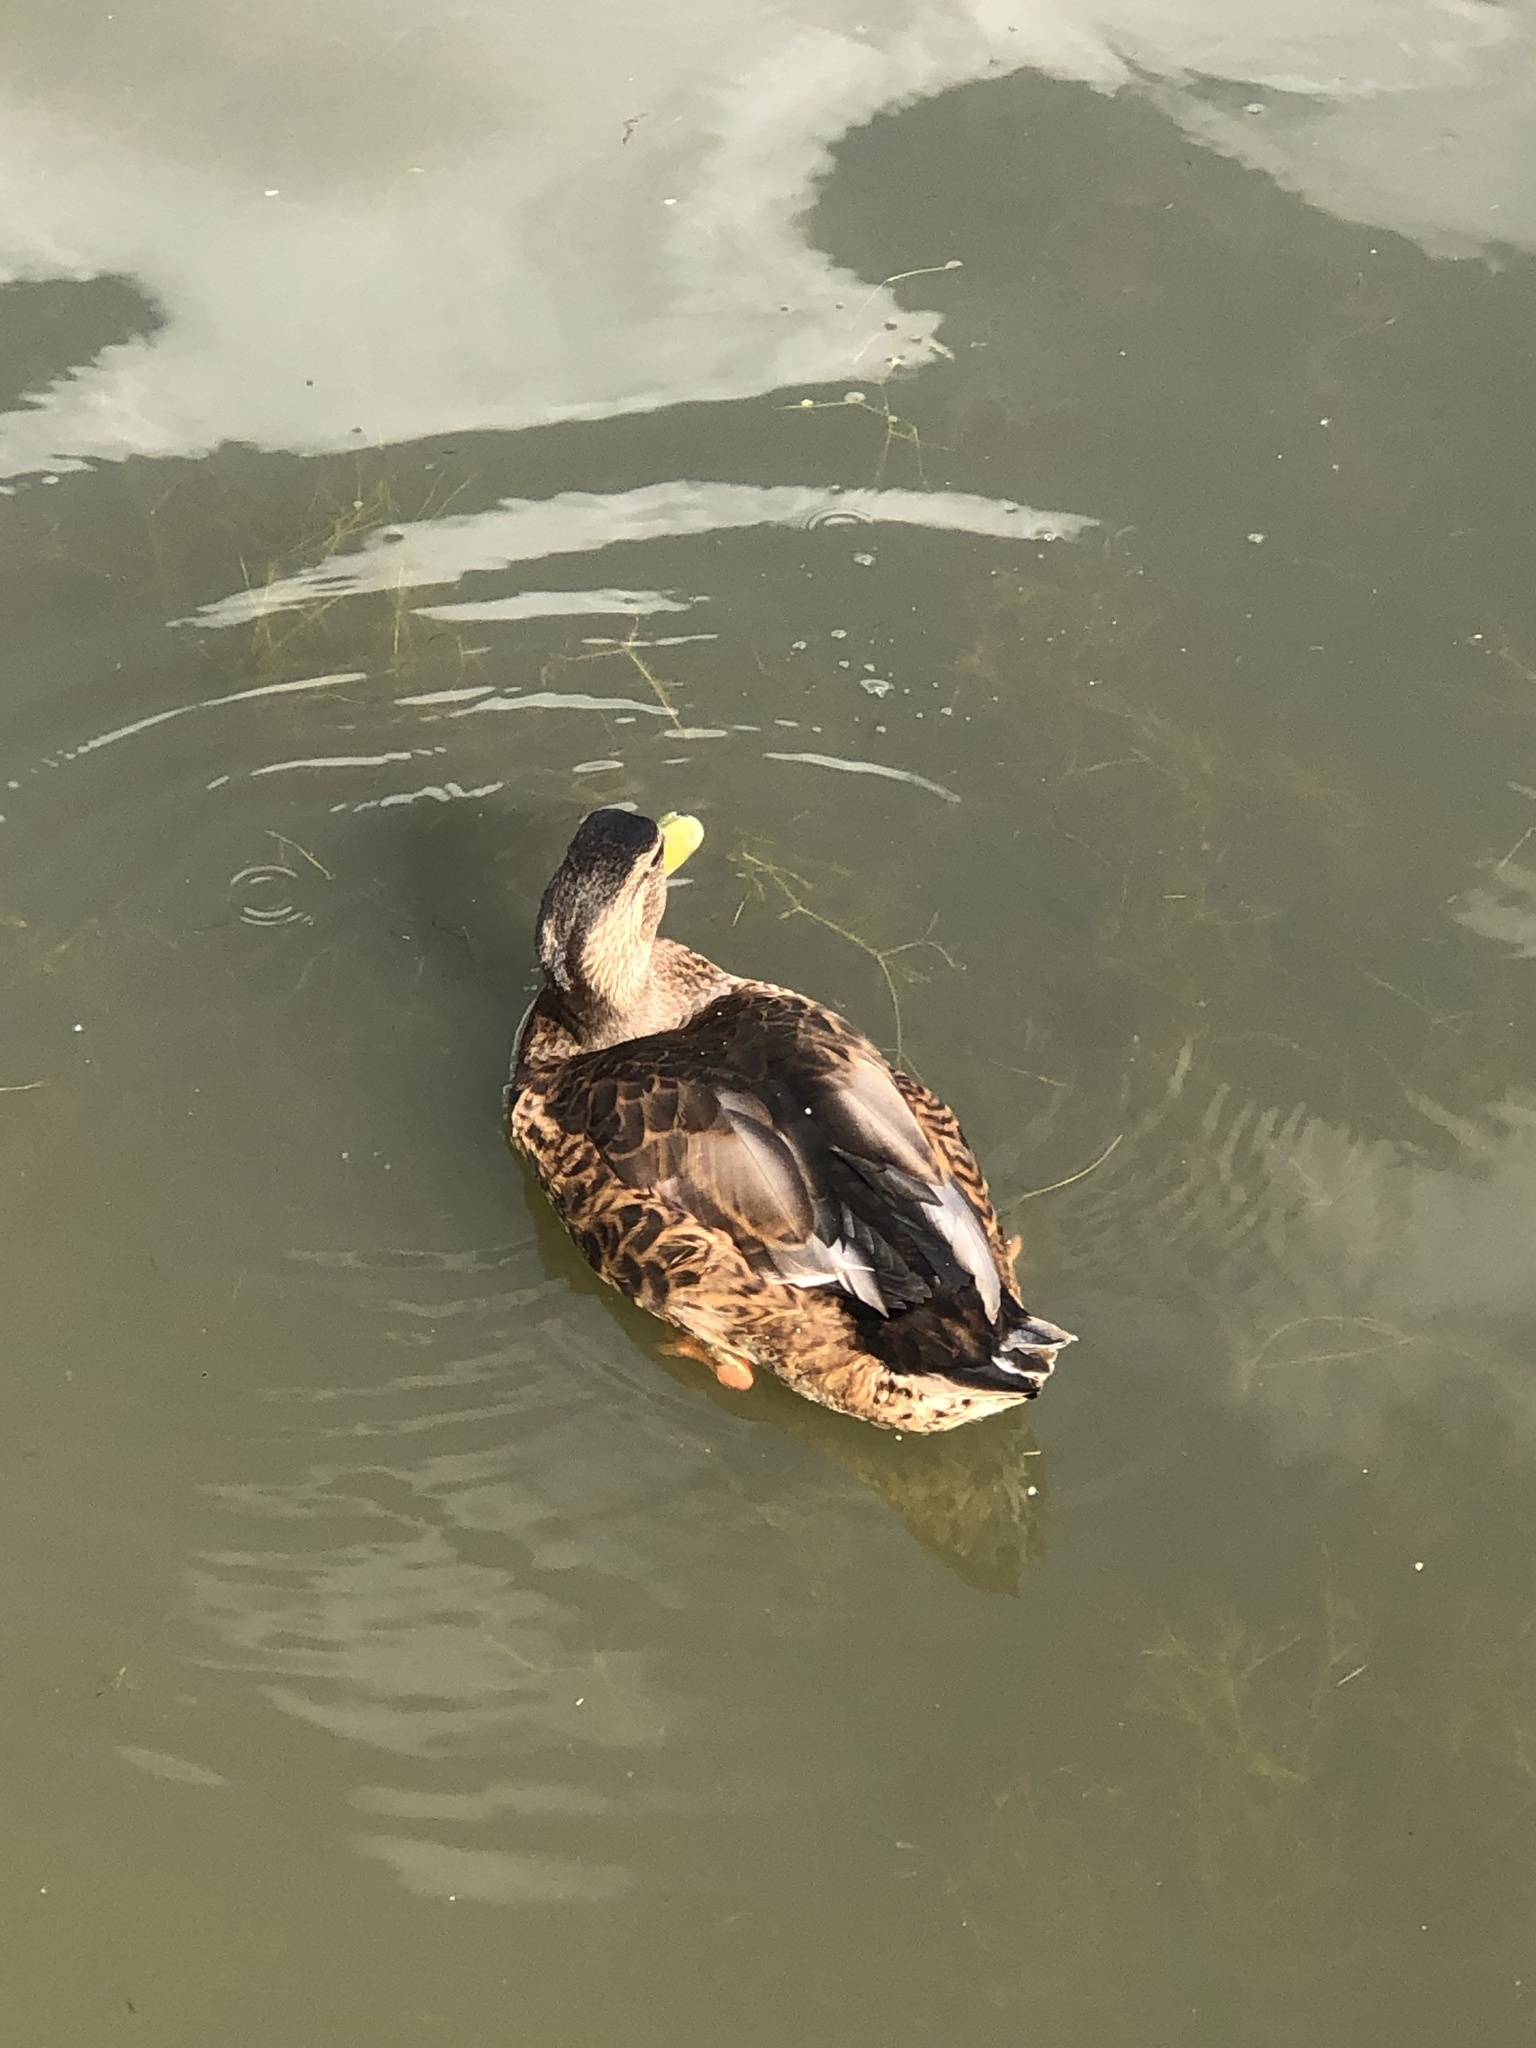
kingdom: Animalia
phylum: Chordata
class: Aves
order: Anseriformes
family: Anatidae
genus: Anas
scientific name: Anas platyrhynchos
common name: Mallard
